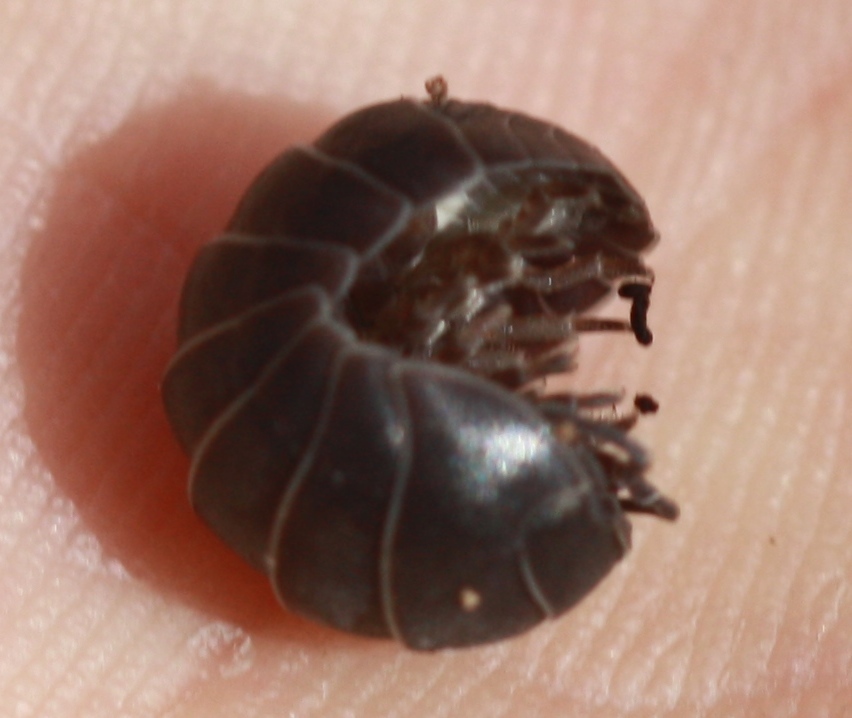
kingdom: Animalia
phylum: Arthropoda
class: Malacostraca
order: Isopoda
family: Armadillidiidae
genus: Armadillidium
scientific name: Armadillidium vulgare
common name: Common pill woodlouse
